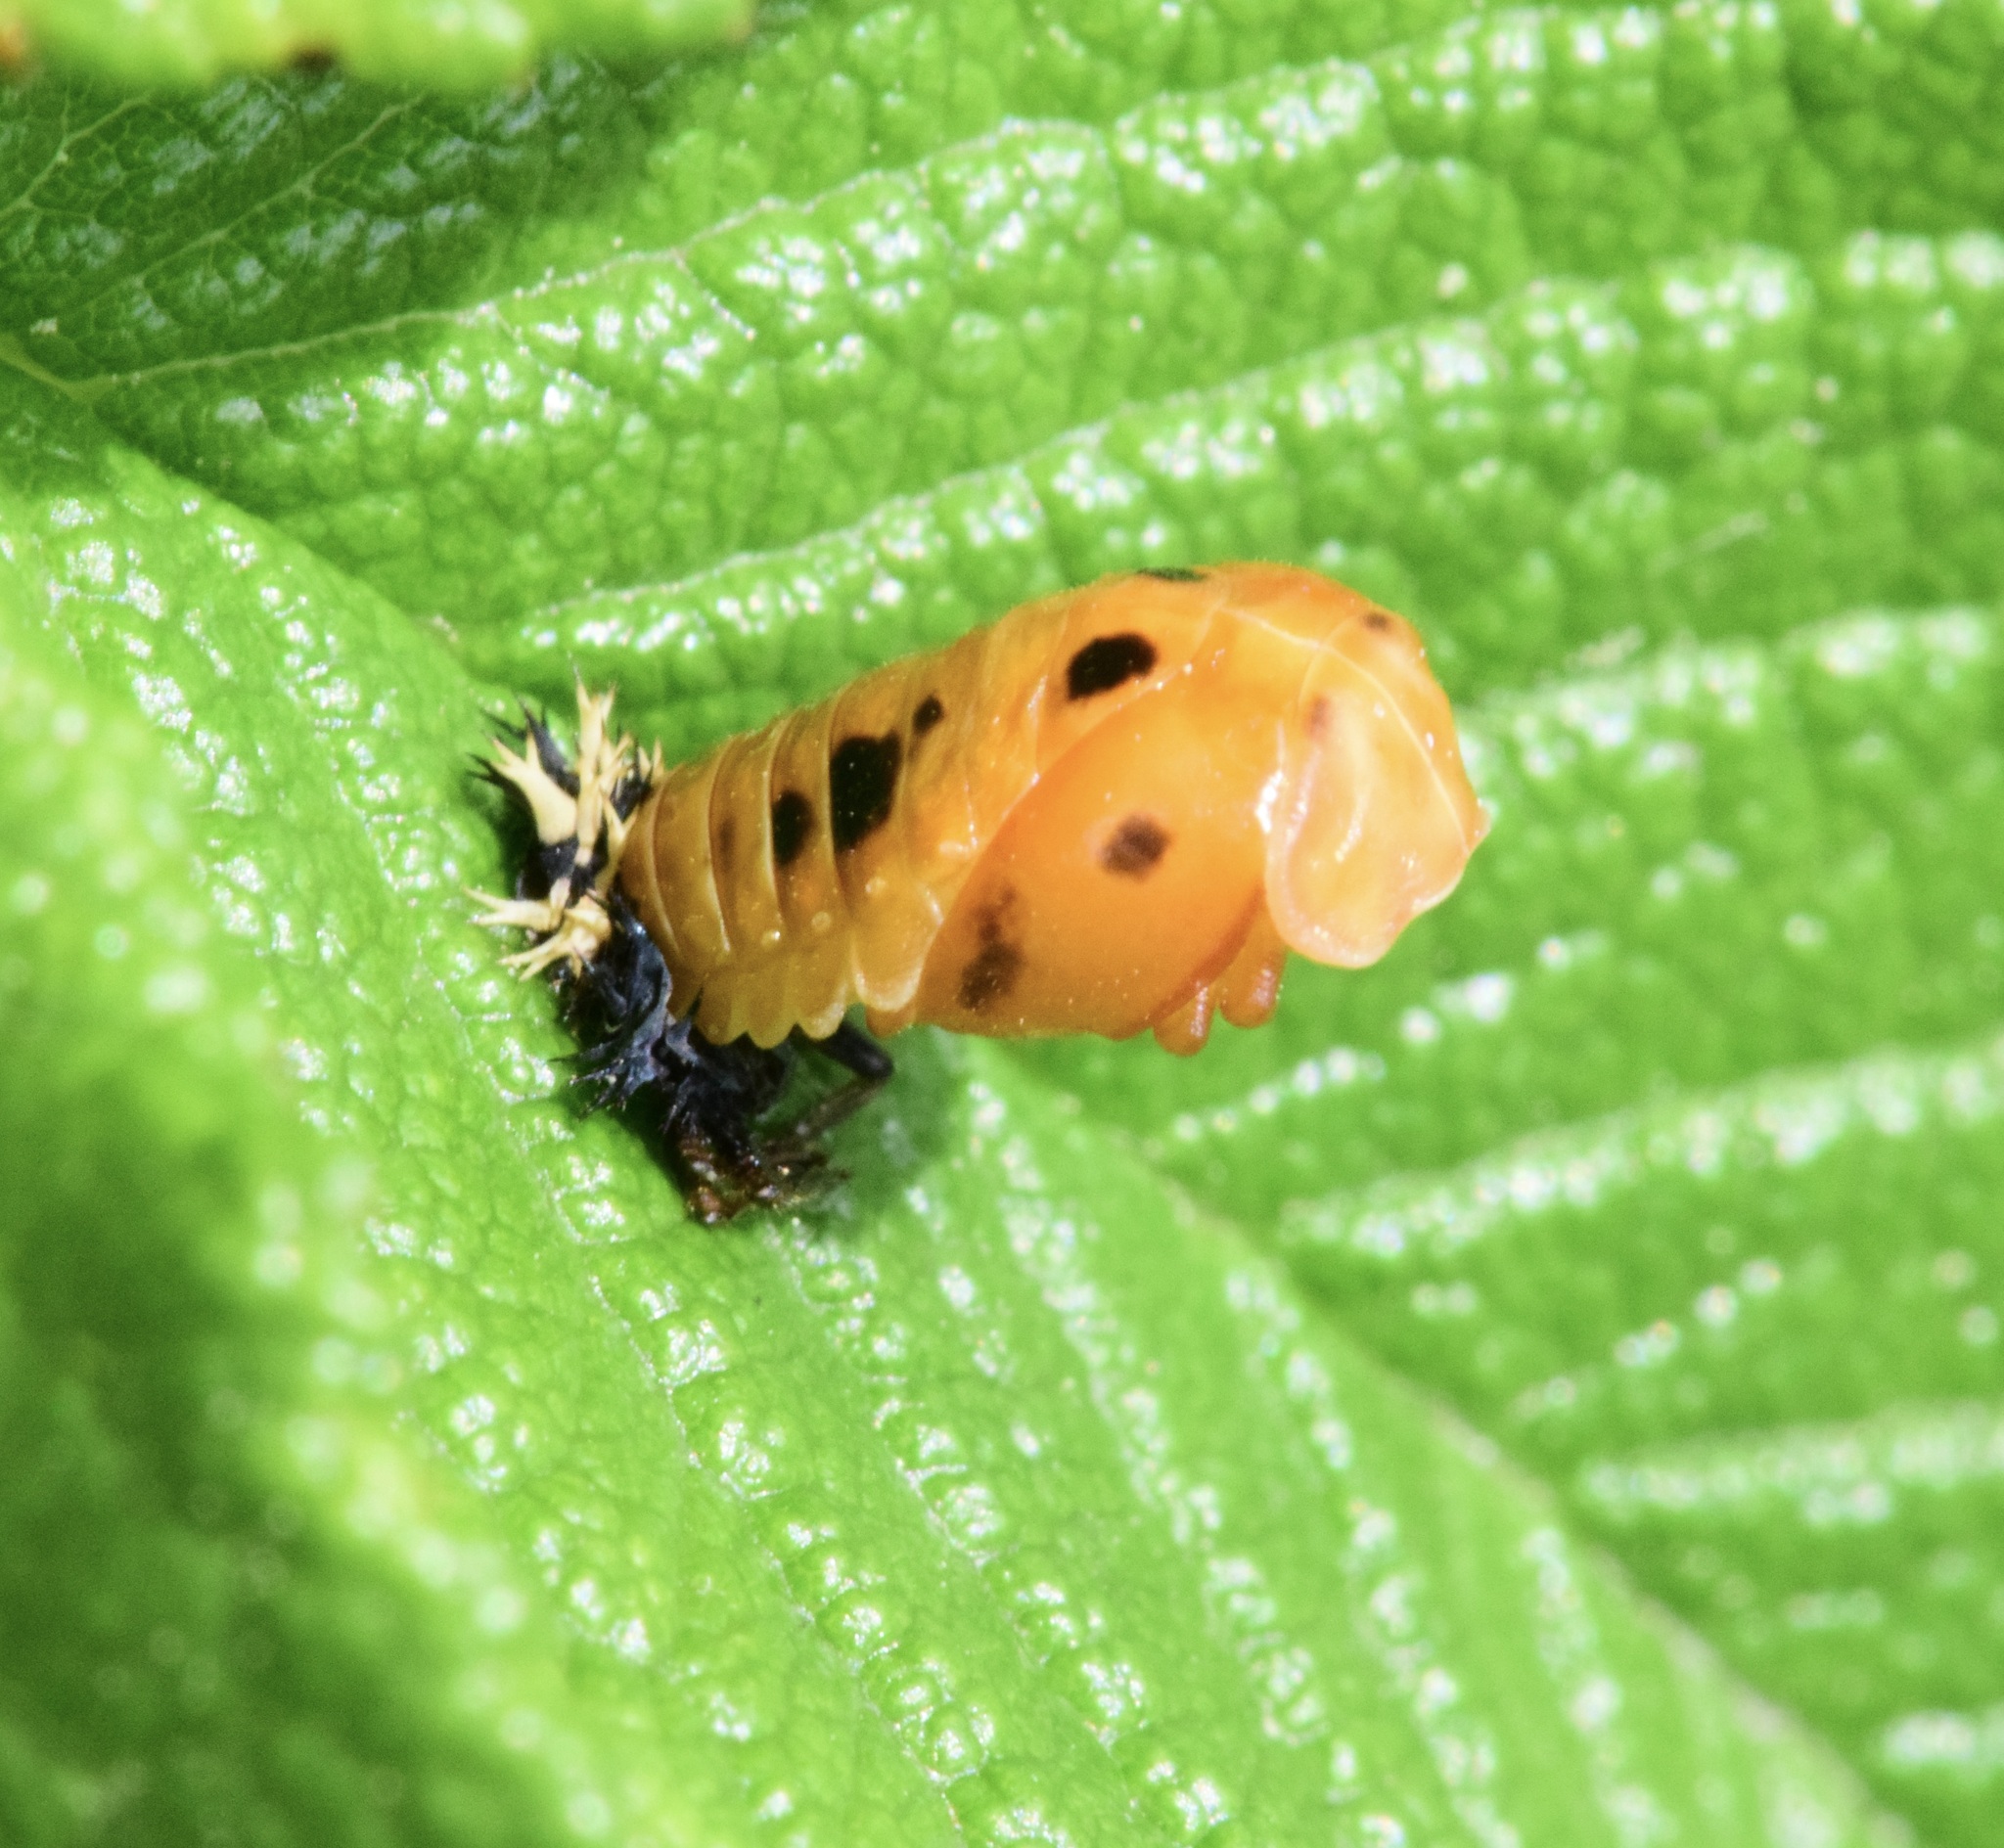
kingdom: Animalia
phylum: Arthropoda
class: Insecta
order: Coleoptera
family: Coccinellidae
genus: Harmonia
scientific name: Harmonia axyridis
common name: Harlequin ladybird
